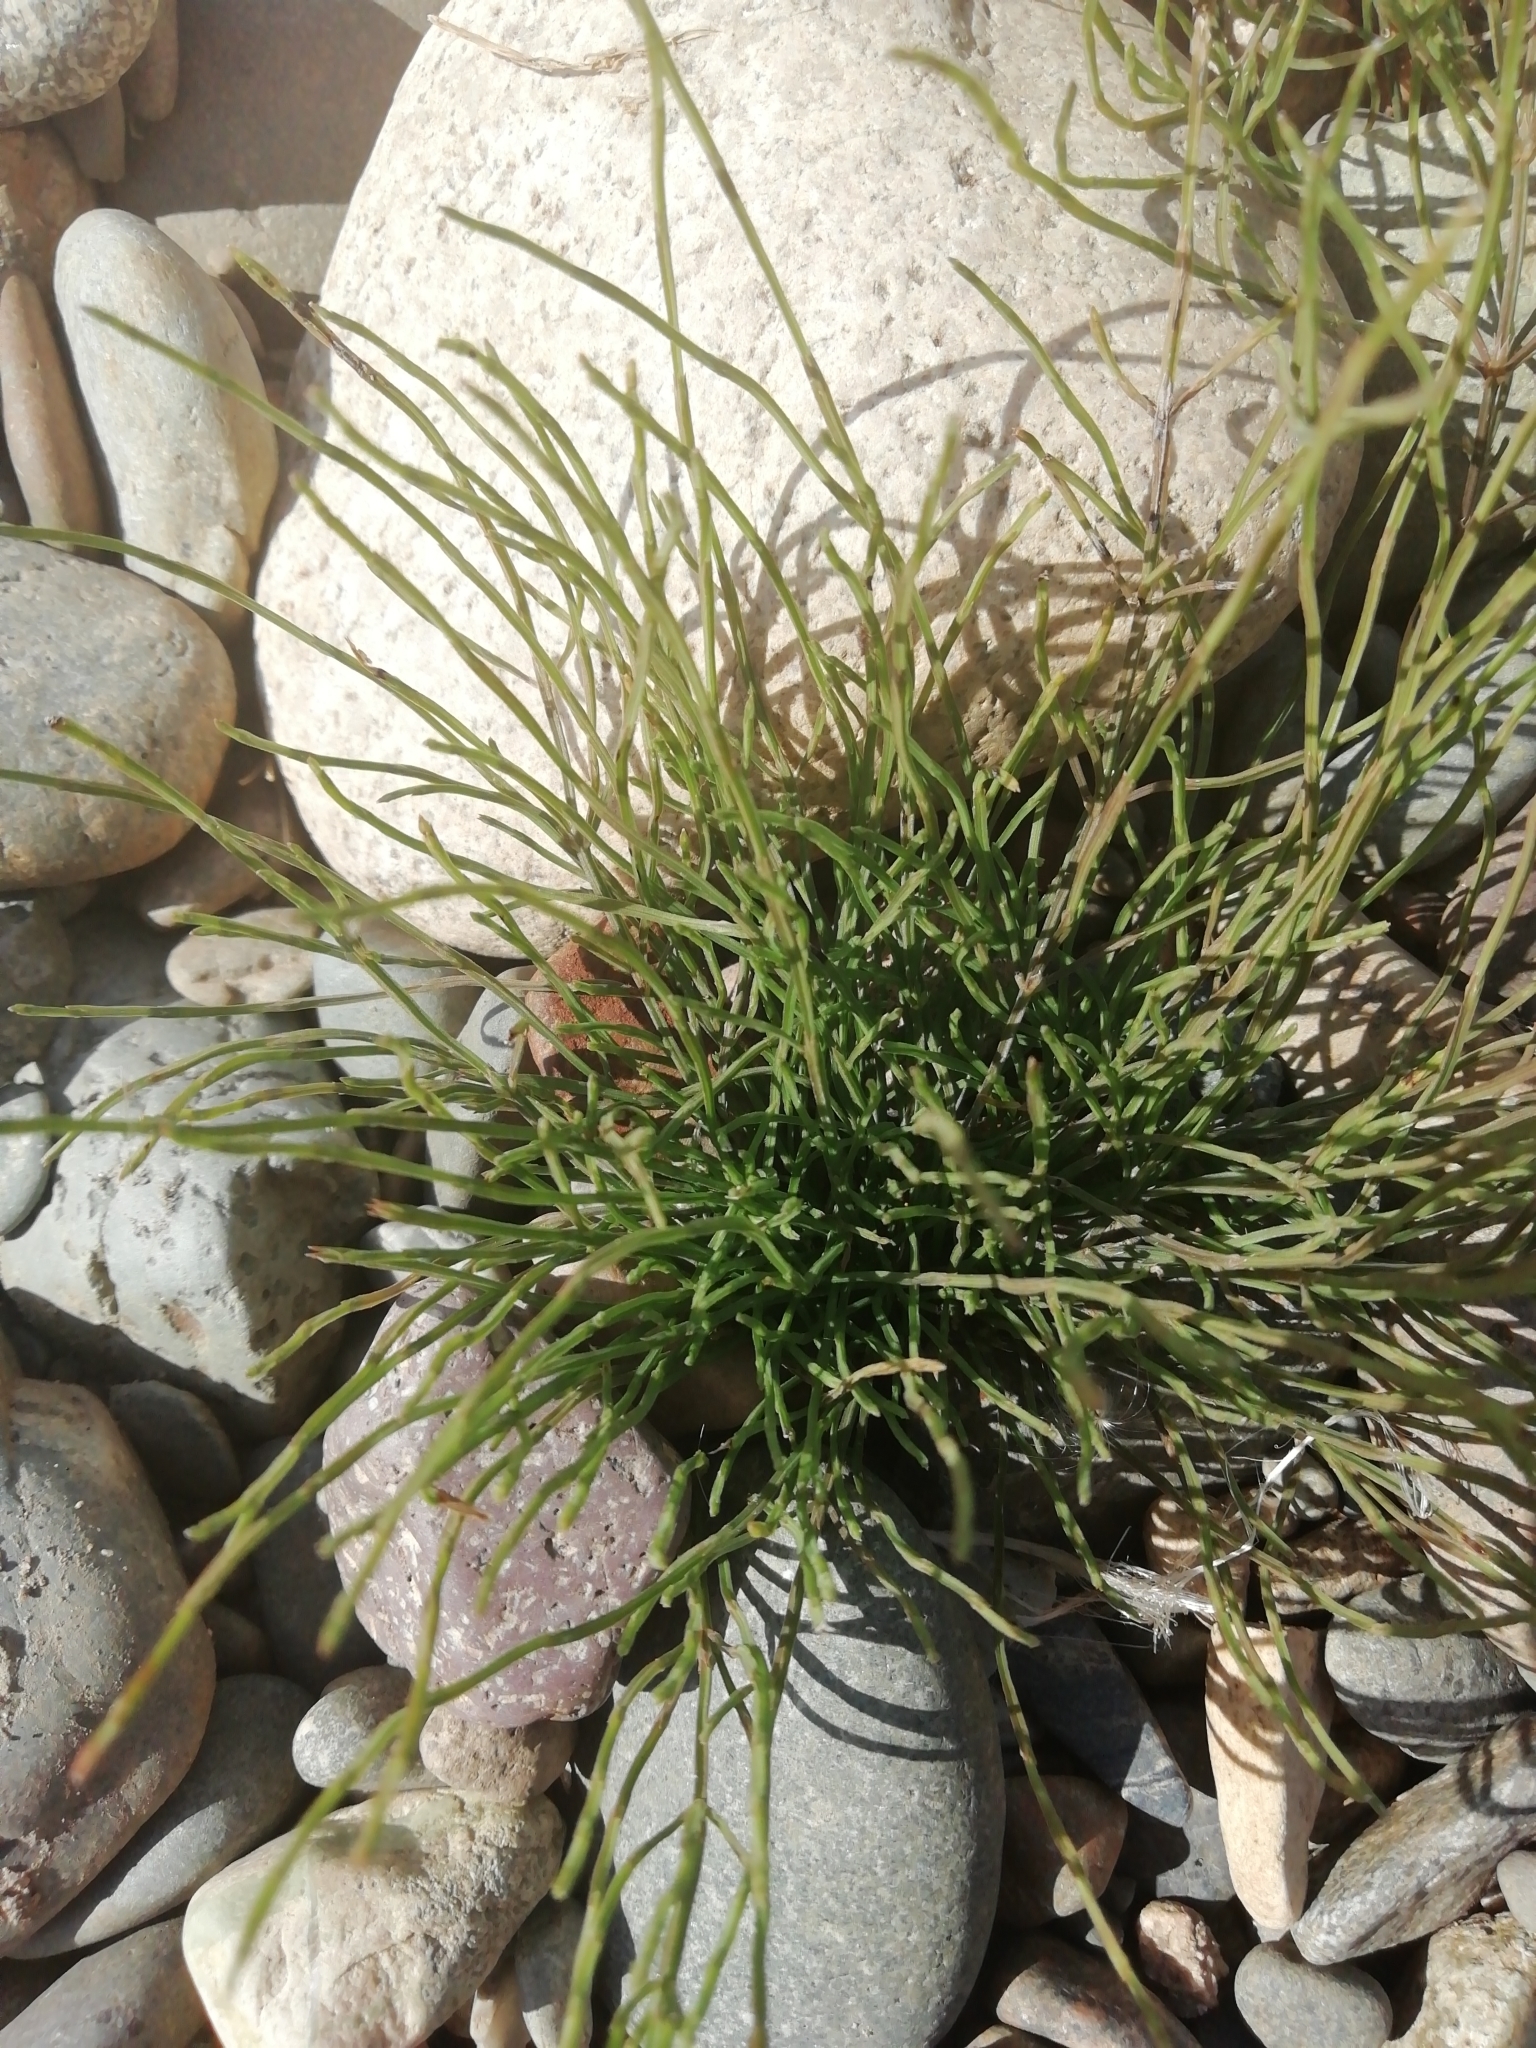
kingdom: Plantae
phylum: Tracheophyta
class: Polypodiopsida
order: Equisetales
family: Equisetaceae
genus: Equisetum
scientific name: Equisetum arvense
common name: Field horsetail
